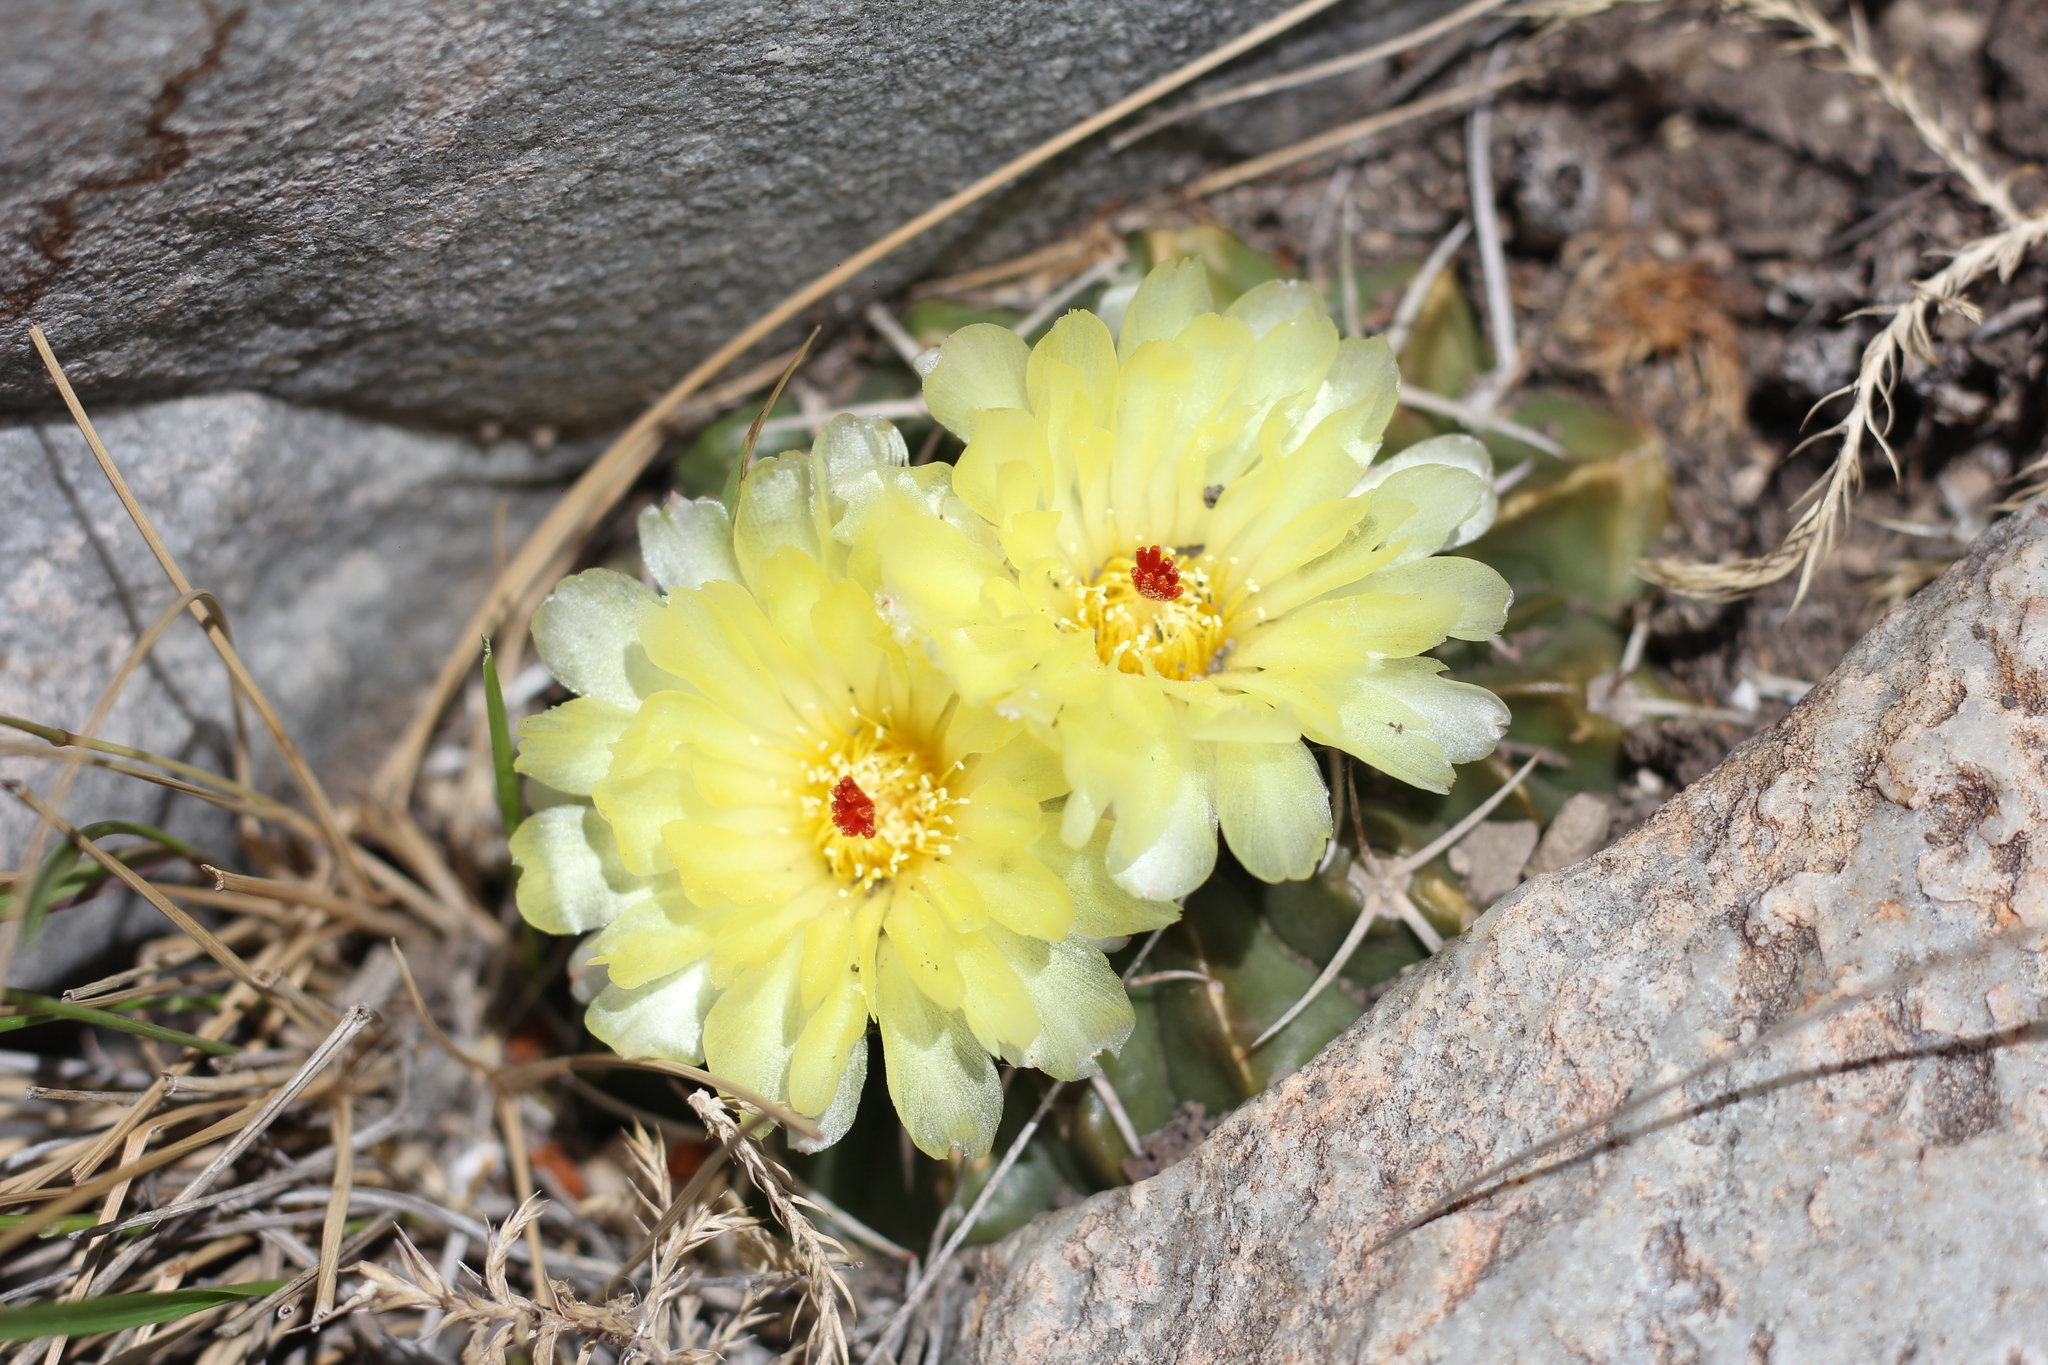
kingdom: Plantae
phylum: Tracheophyta
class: Magnoliopsida
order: Caryophyllales
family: Cactaceae
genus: Parodia
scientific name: Parodia erinacea
